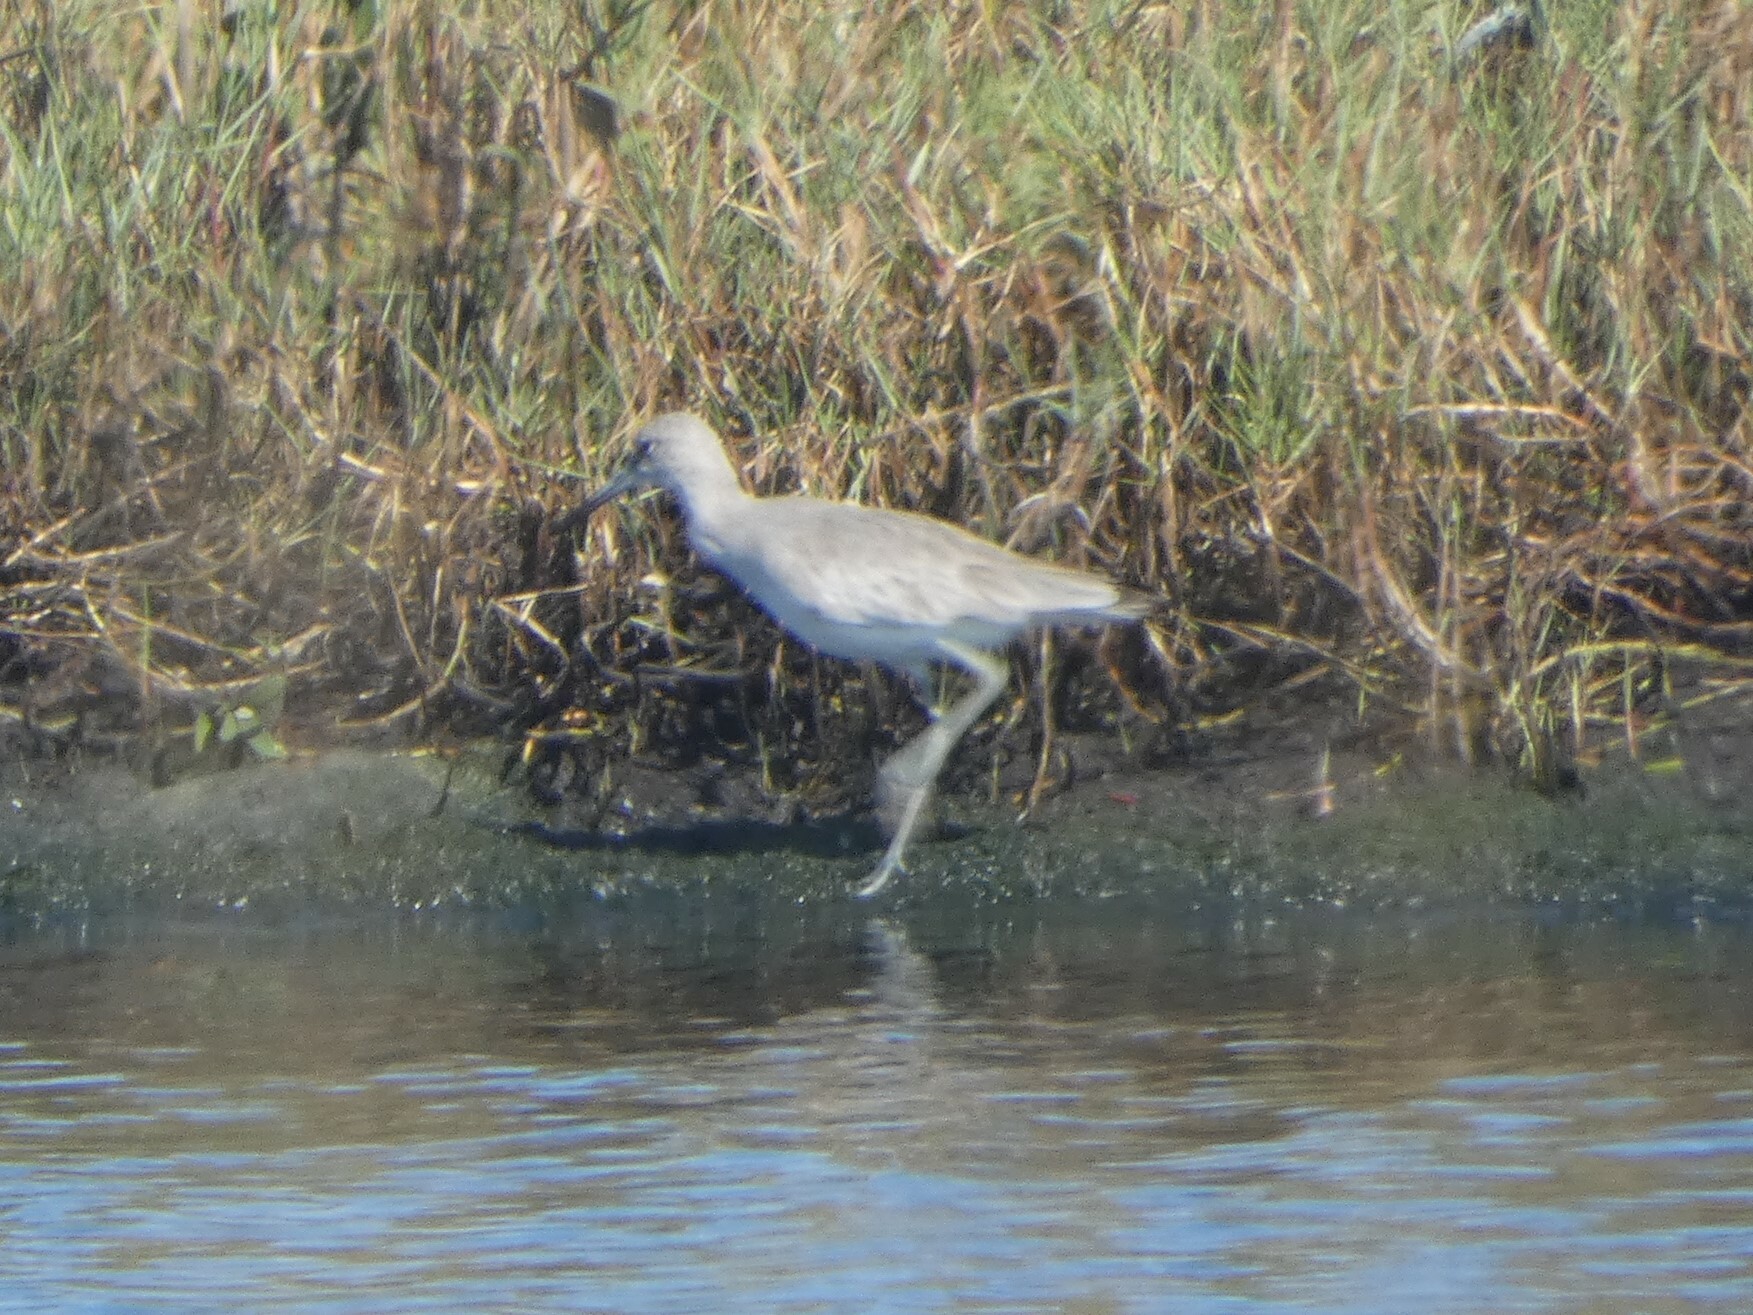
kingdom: Animalia
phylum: Chordata
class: Aves
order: Charadriiformes
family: Scolopacidae
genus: Tringa
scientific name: Tringa semipalmata
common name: Willet
